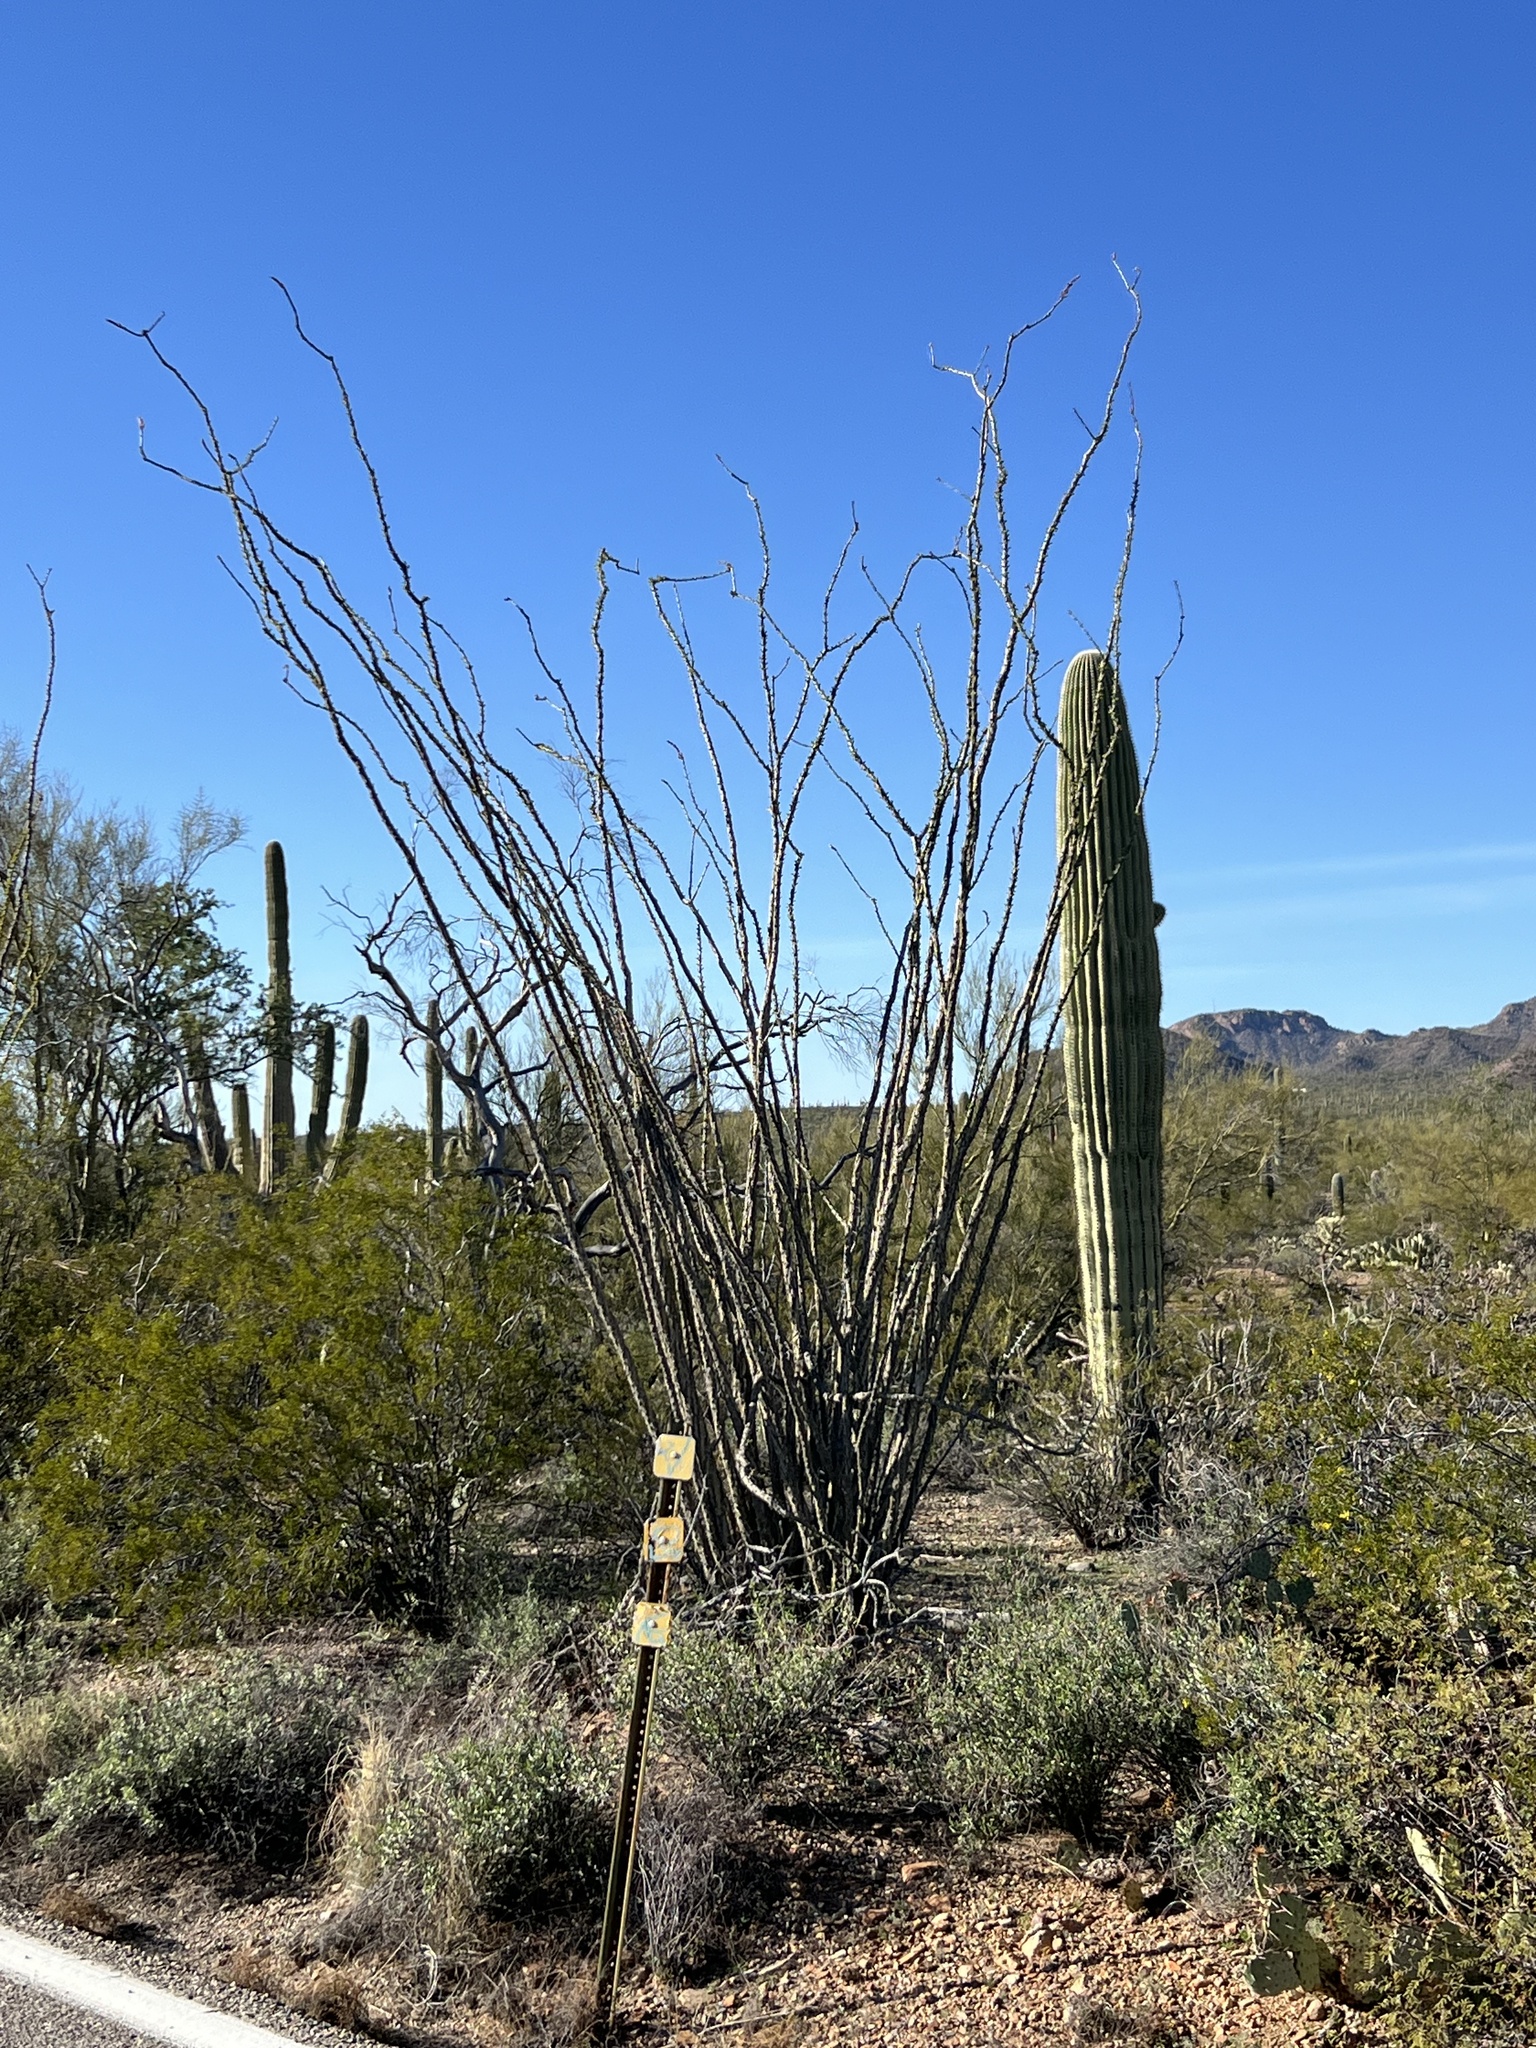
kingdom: Plantae
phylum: Tracheophyta
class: Magnoliopsida
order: Ericales
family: Fouquieriaceae
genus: Fouquieria
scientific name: Fouquieria splendens
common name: Vine-cactus
